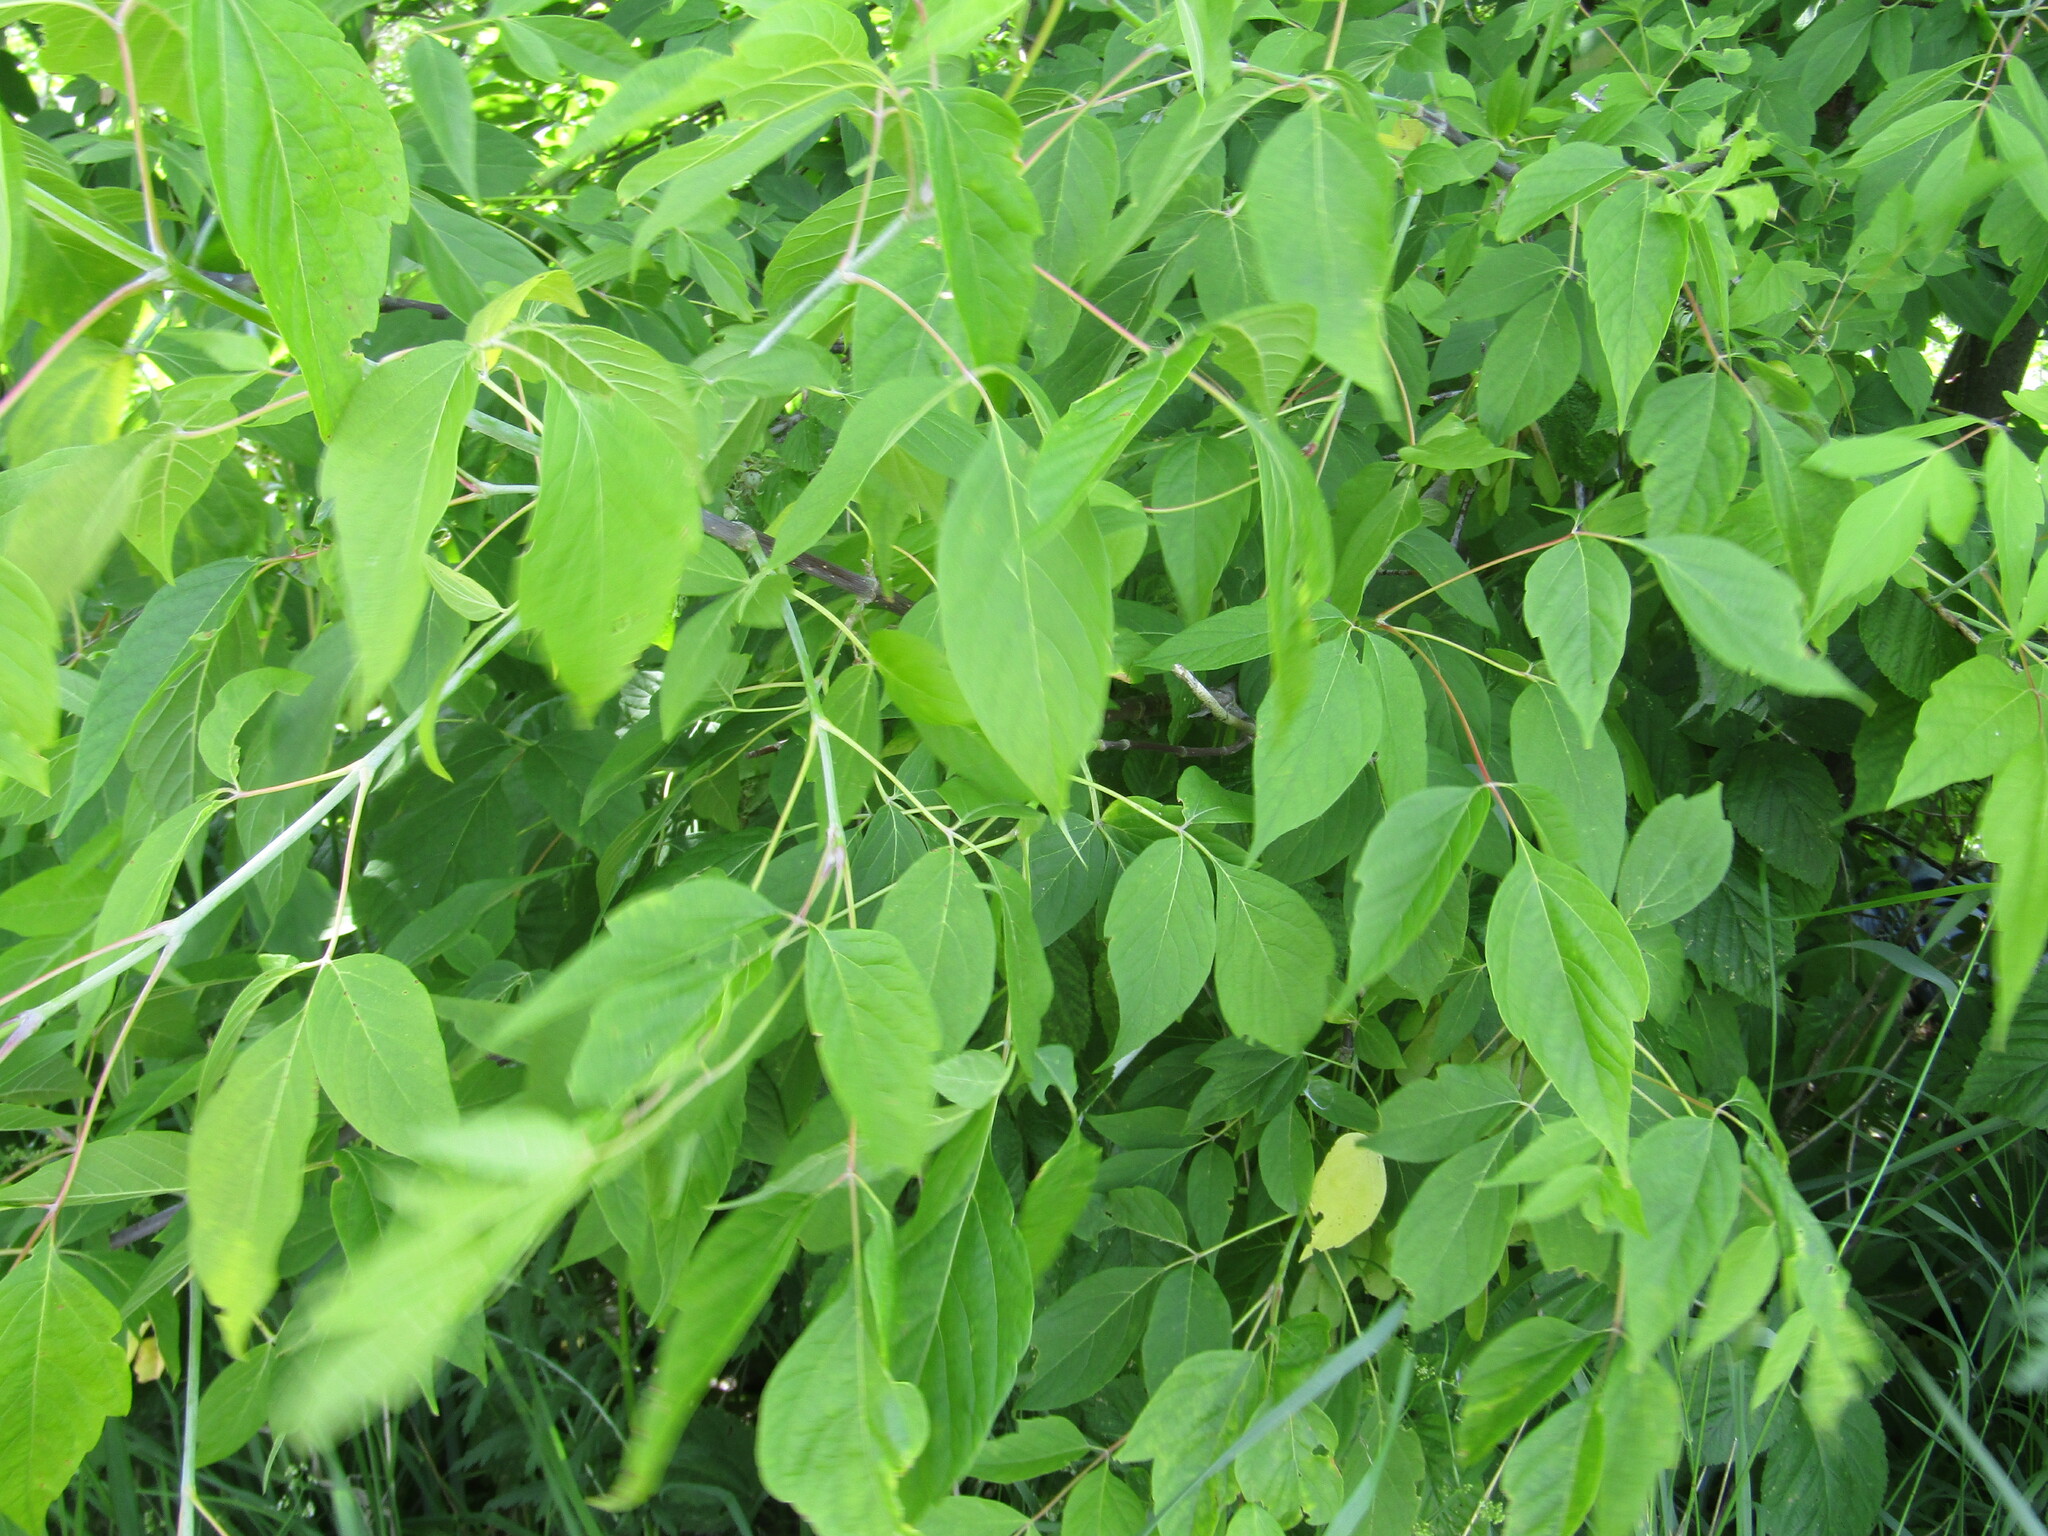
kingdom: Plantae
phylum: Tracheophyta
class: Magnoliopsida
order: Sapindales
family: Sapindaceae
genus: Acer
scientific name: Acer negundo
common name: Ashleaf maple
